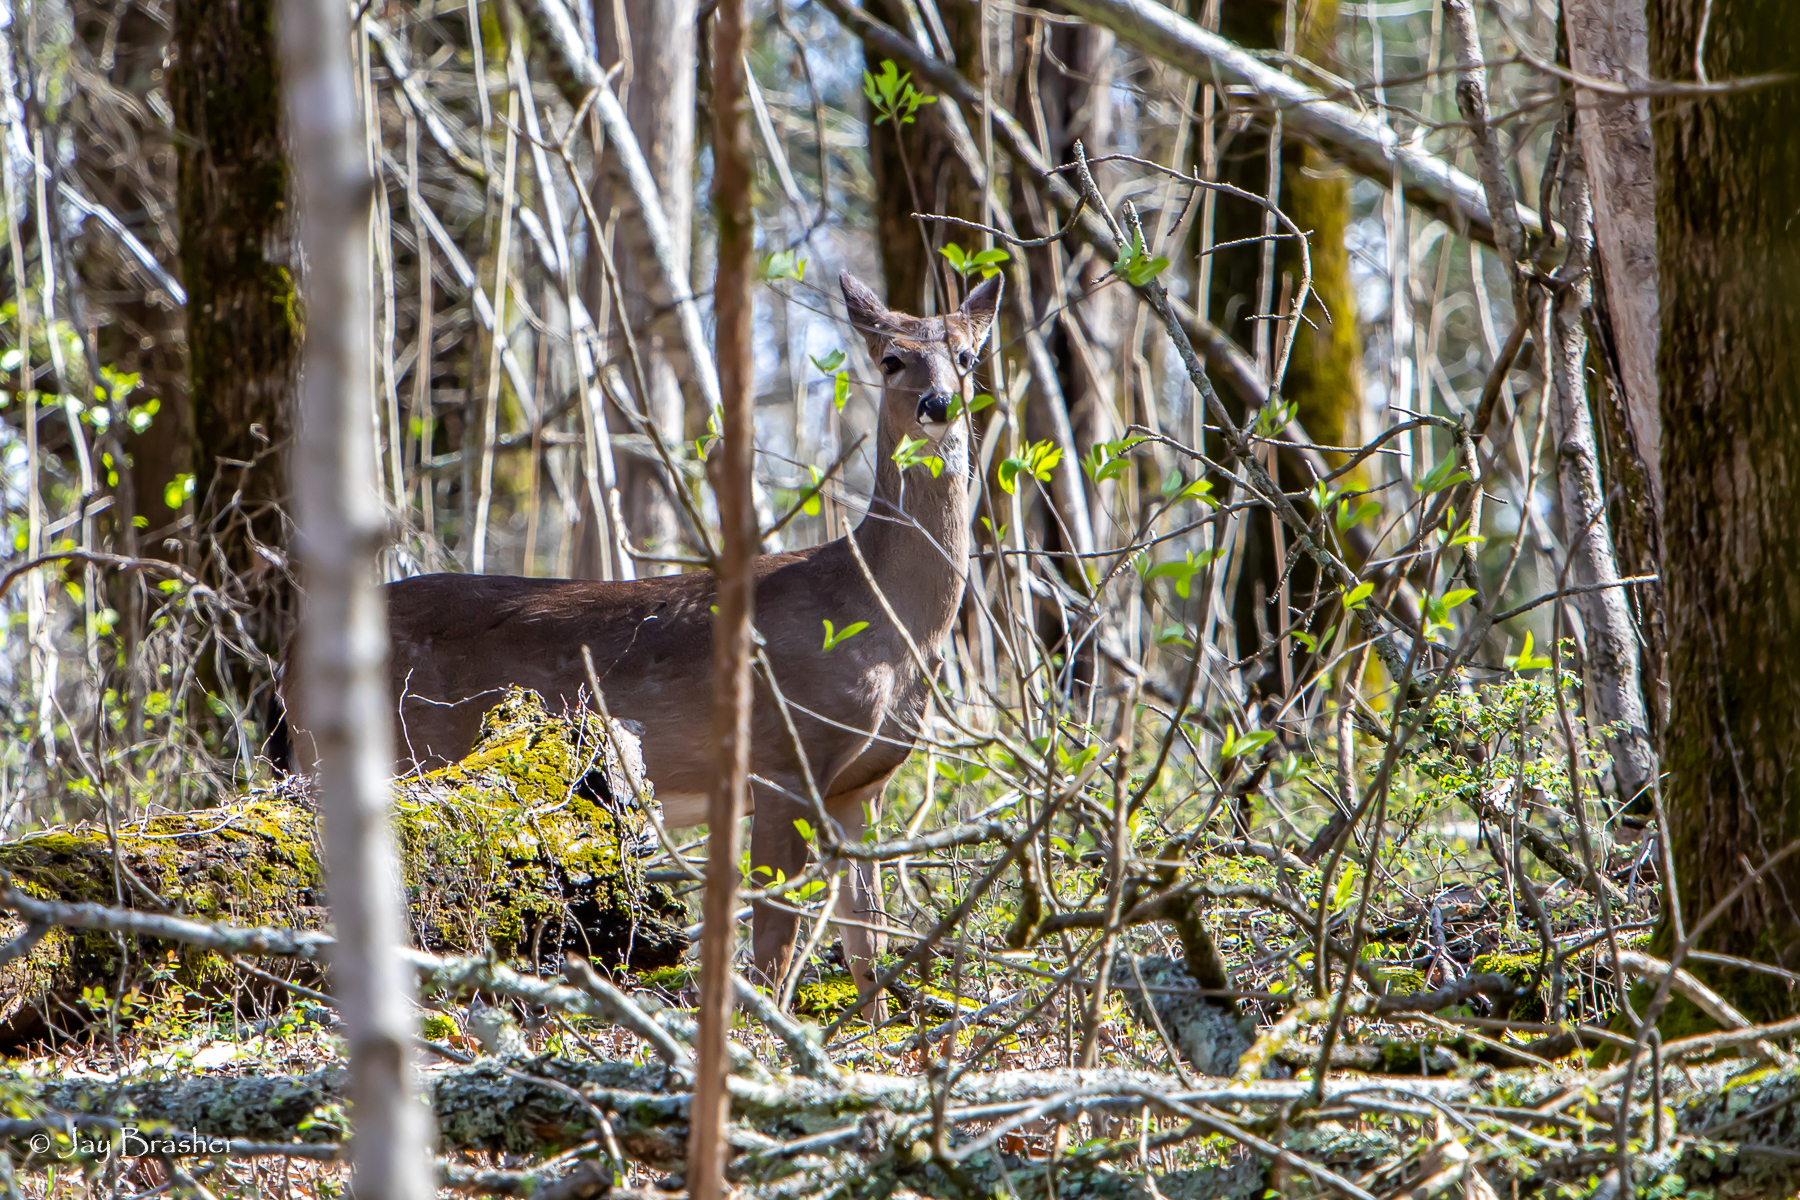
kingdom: Animalia
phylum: Chordata
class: Mammalia
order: Artiodactyla
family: Cervidae
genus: Odocoileus
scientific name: Odocoileus virginianus
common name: White-tailed deer
